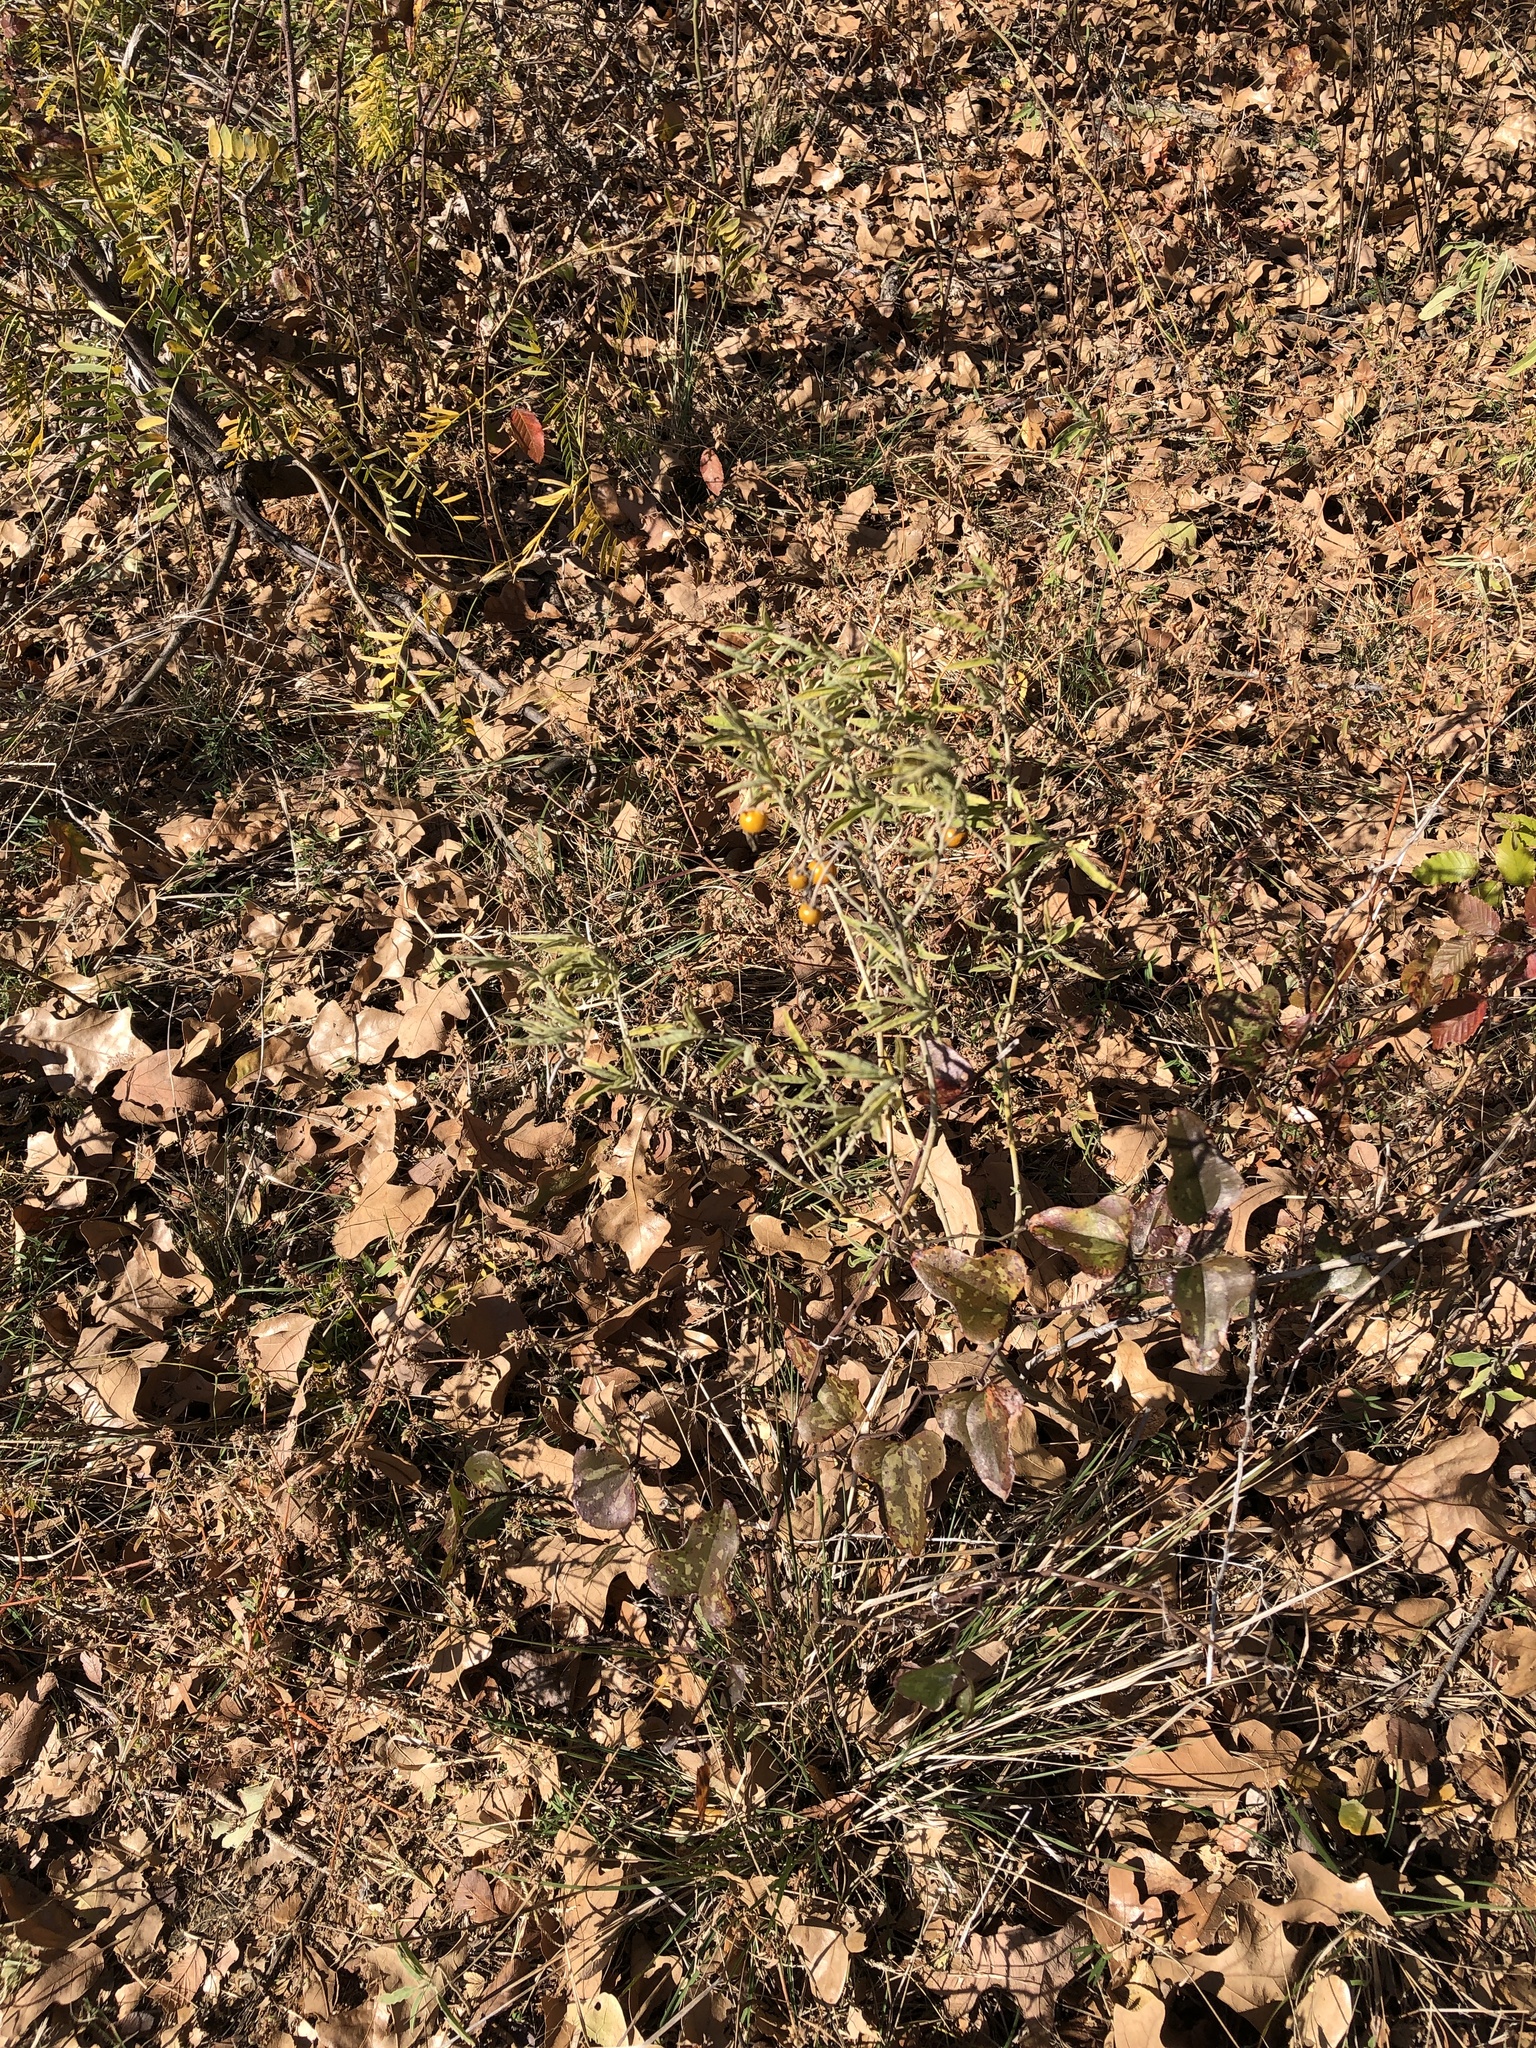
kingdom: Plantae
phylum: Tracheophyta
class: Magnoliopsida
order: Solanales
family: Solanaceae
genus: Solanum
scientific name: Solanum elaeagnifolium
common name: Silverleaf nightshade
